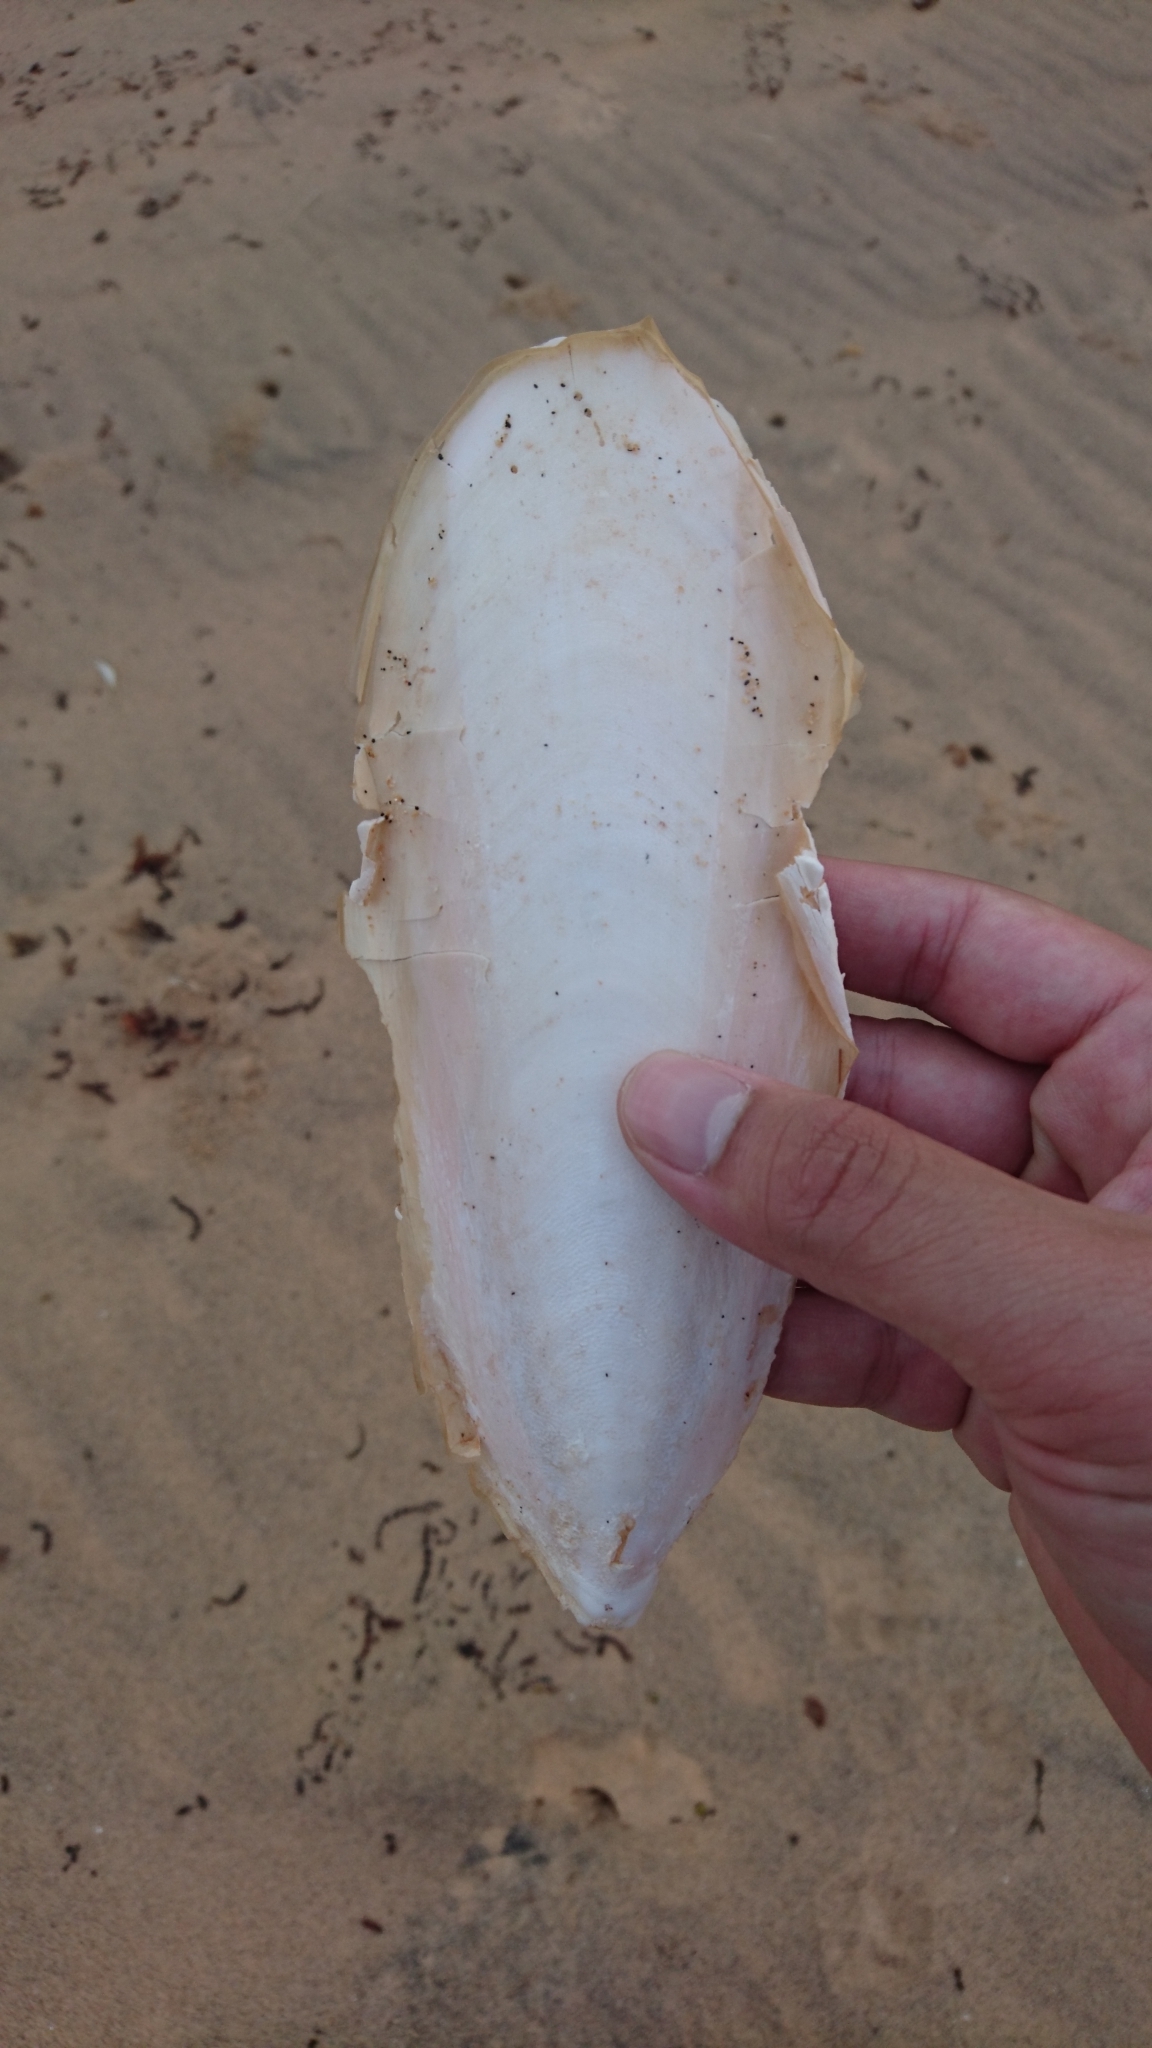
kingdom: Animalia
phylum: Mollusca
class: Cephalopoda
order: Sepiida
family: Sepiidae
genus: Ascarosepion
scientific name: Ascarosepion apama
